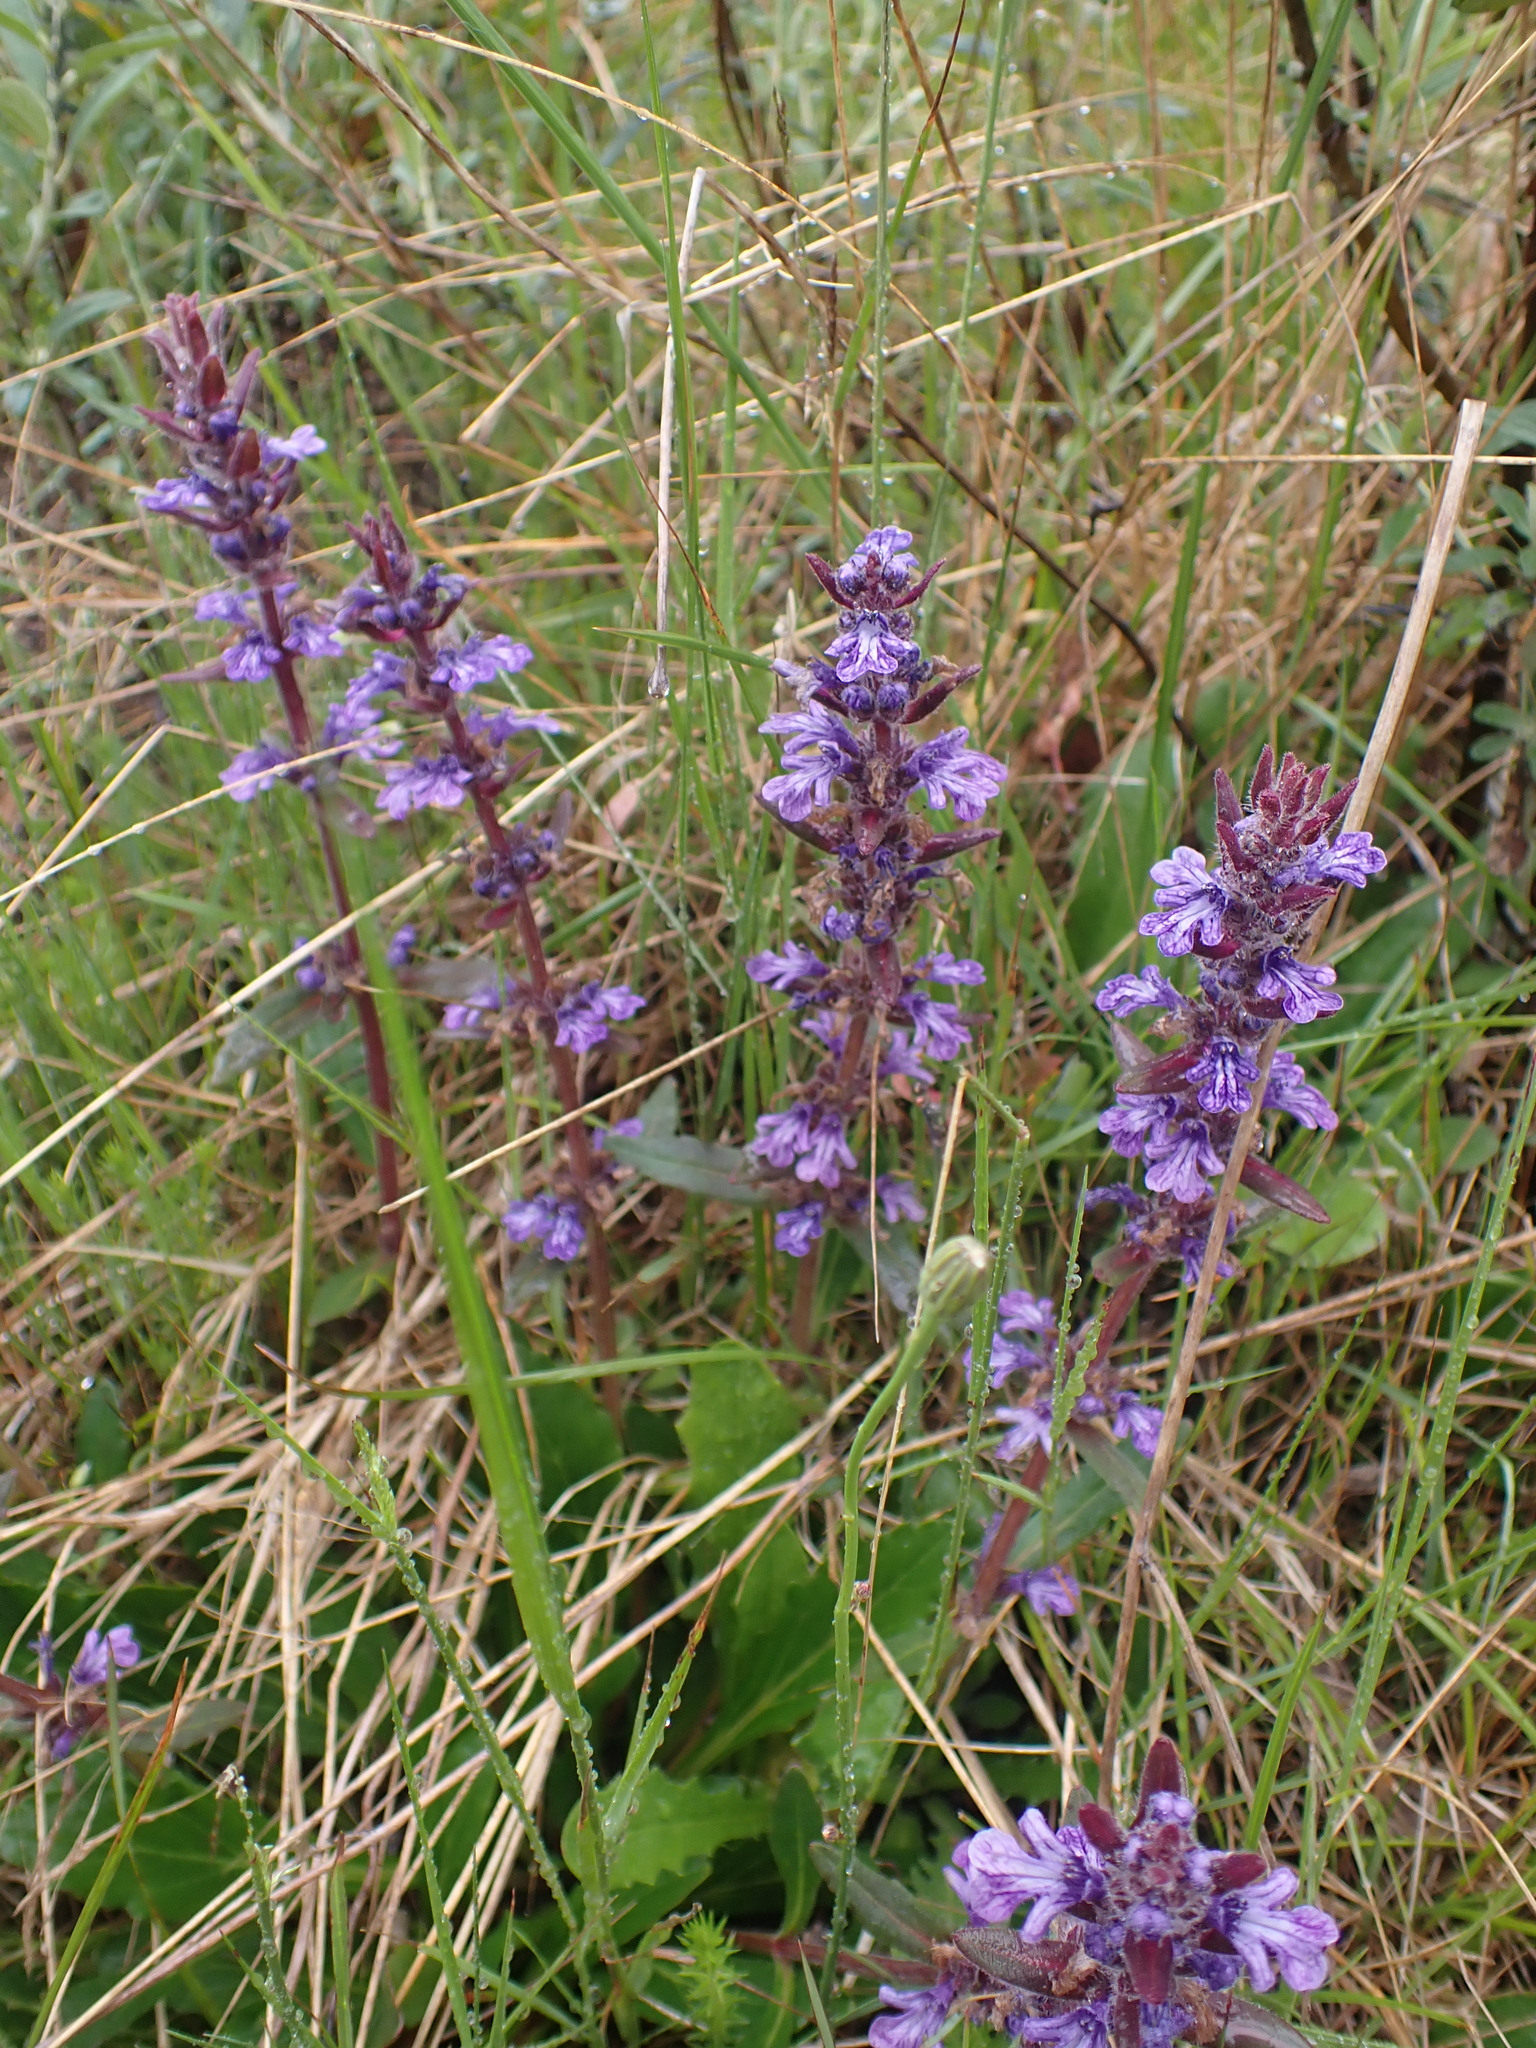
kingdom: Plantae
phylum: Tracheophyta
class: Magnoliopsida
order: Lamiales
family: Lamiaceae
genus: Ajuga
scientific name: Ajuga australis
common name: Australian bugle
